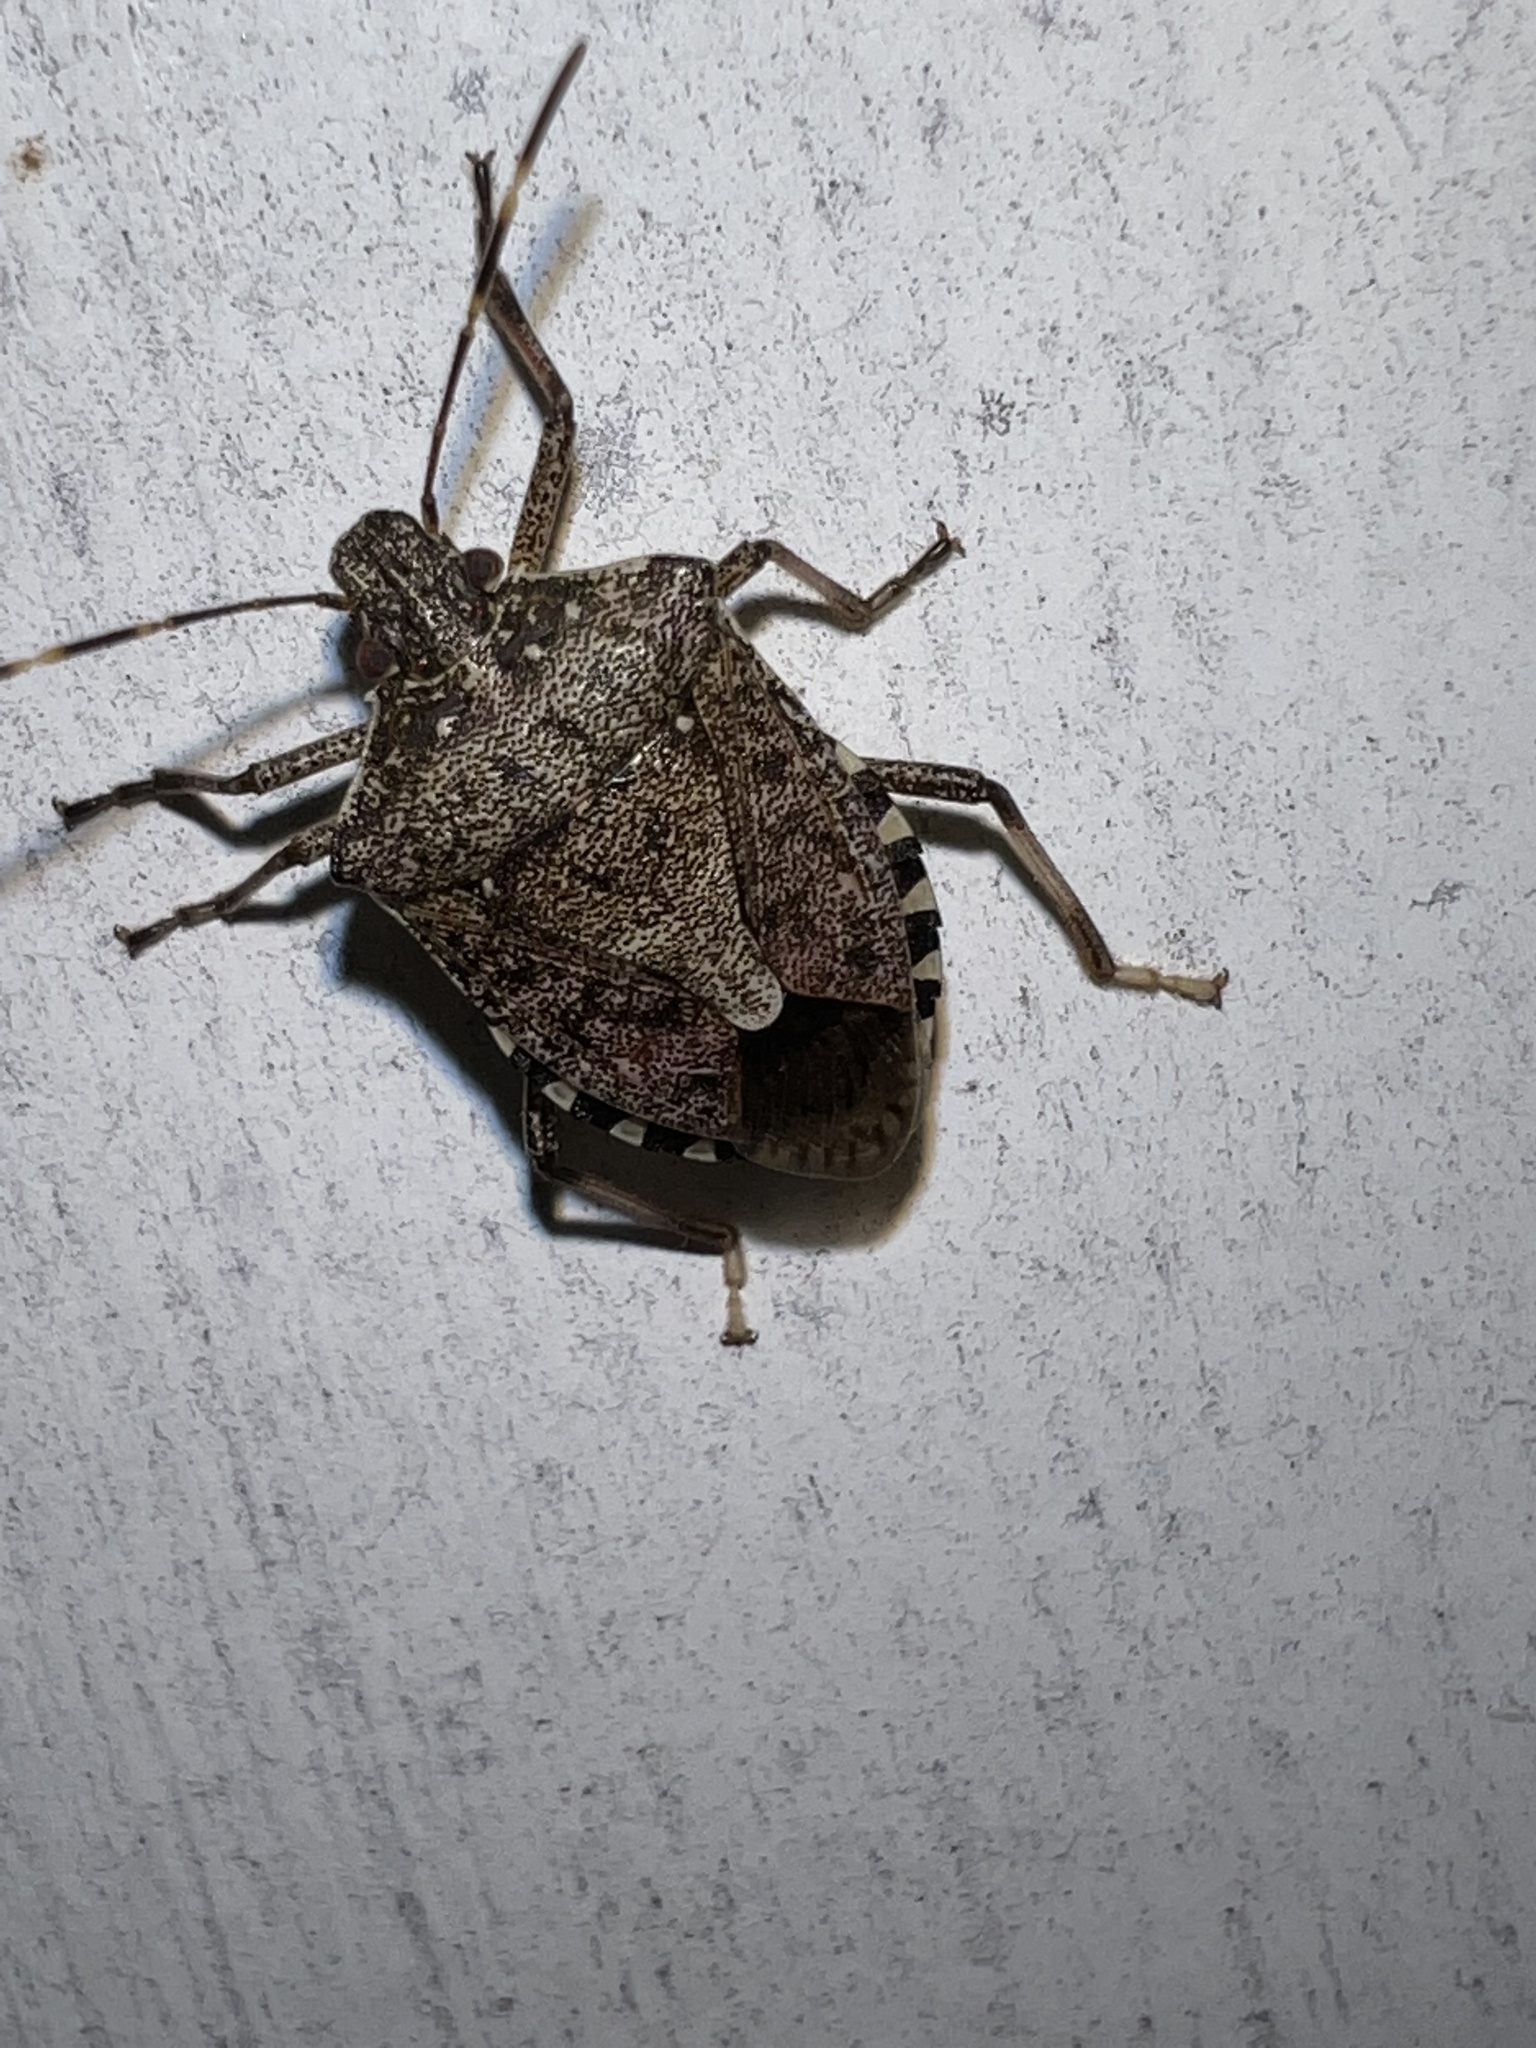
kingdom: Animalia
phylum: Arthropoda
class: Insecta
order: Hemiptera
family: Pentatomidae
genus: Halyomorpha
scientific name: Halyomorpha halys
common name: Brown marmorated stink bug
